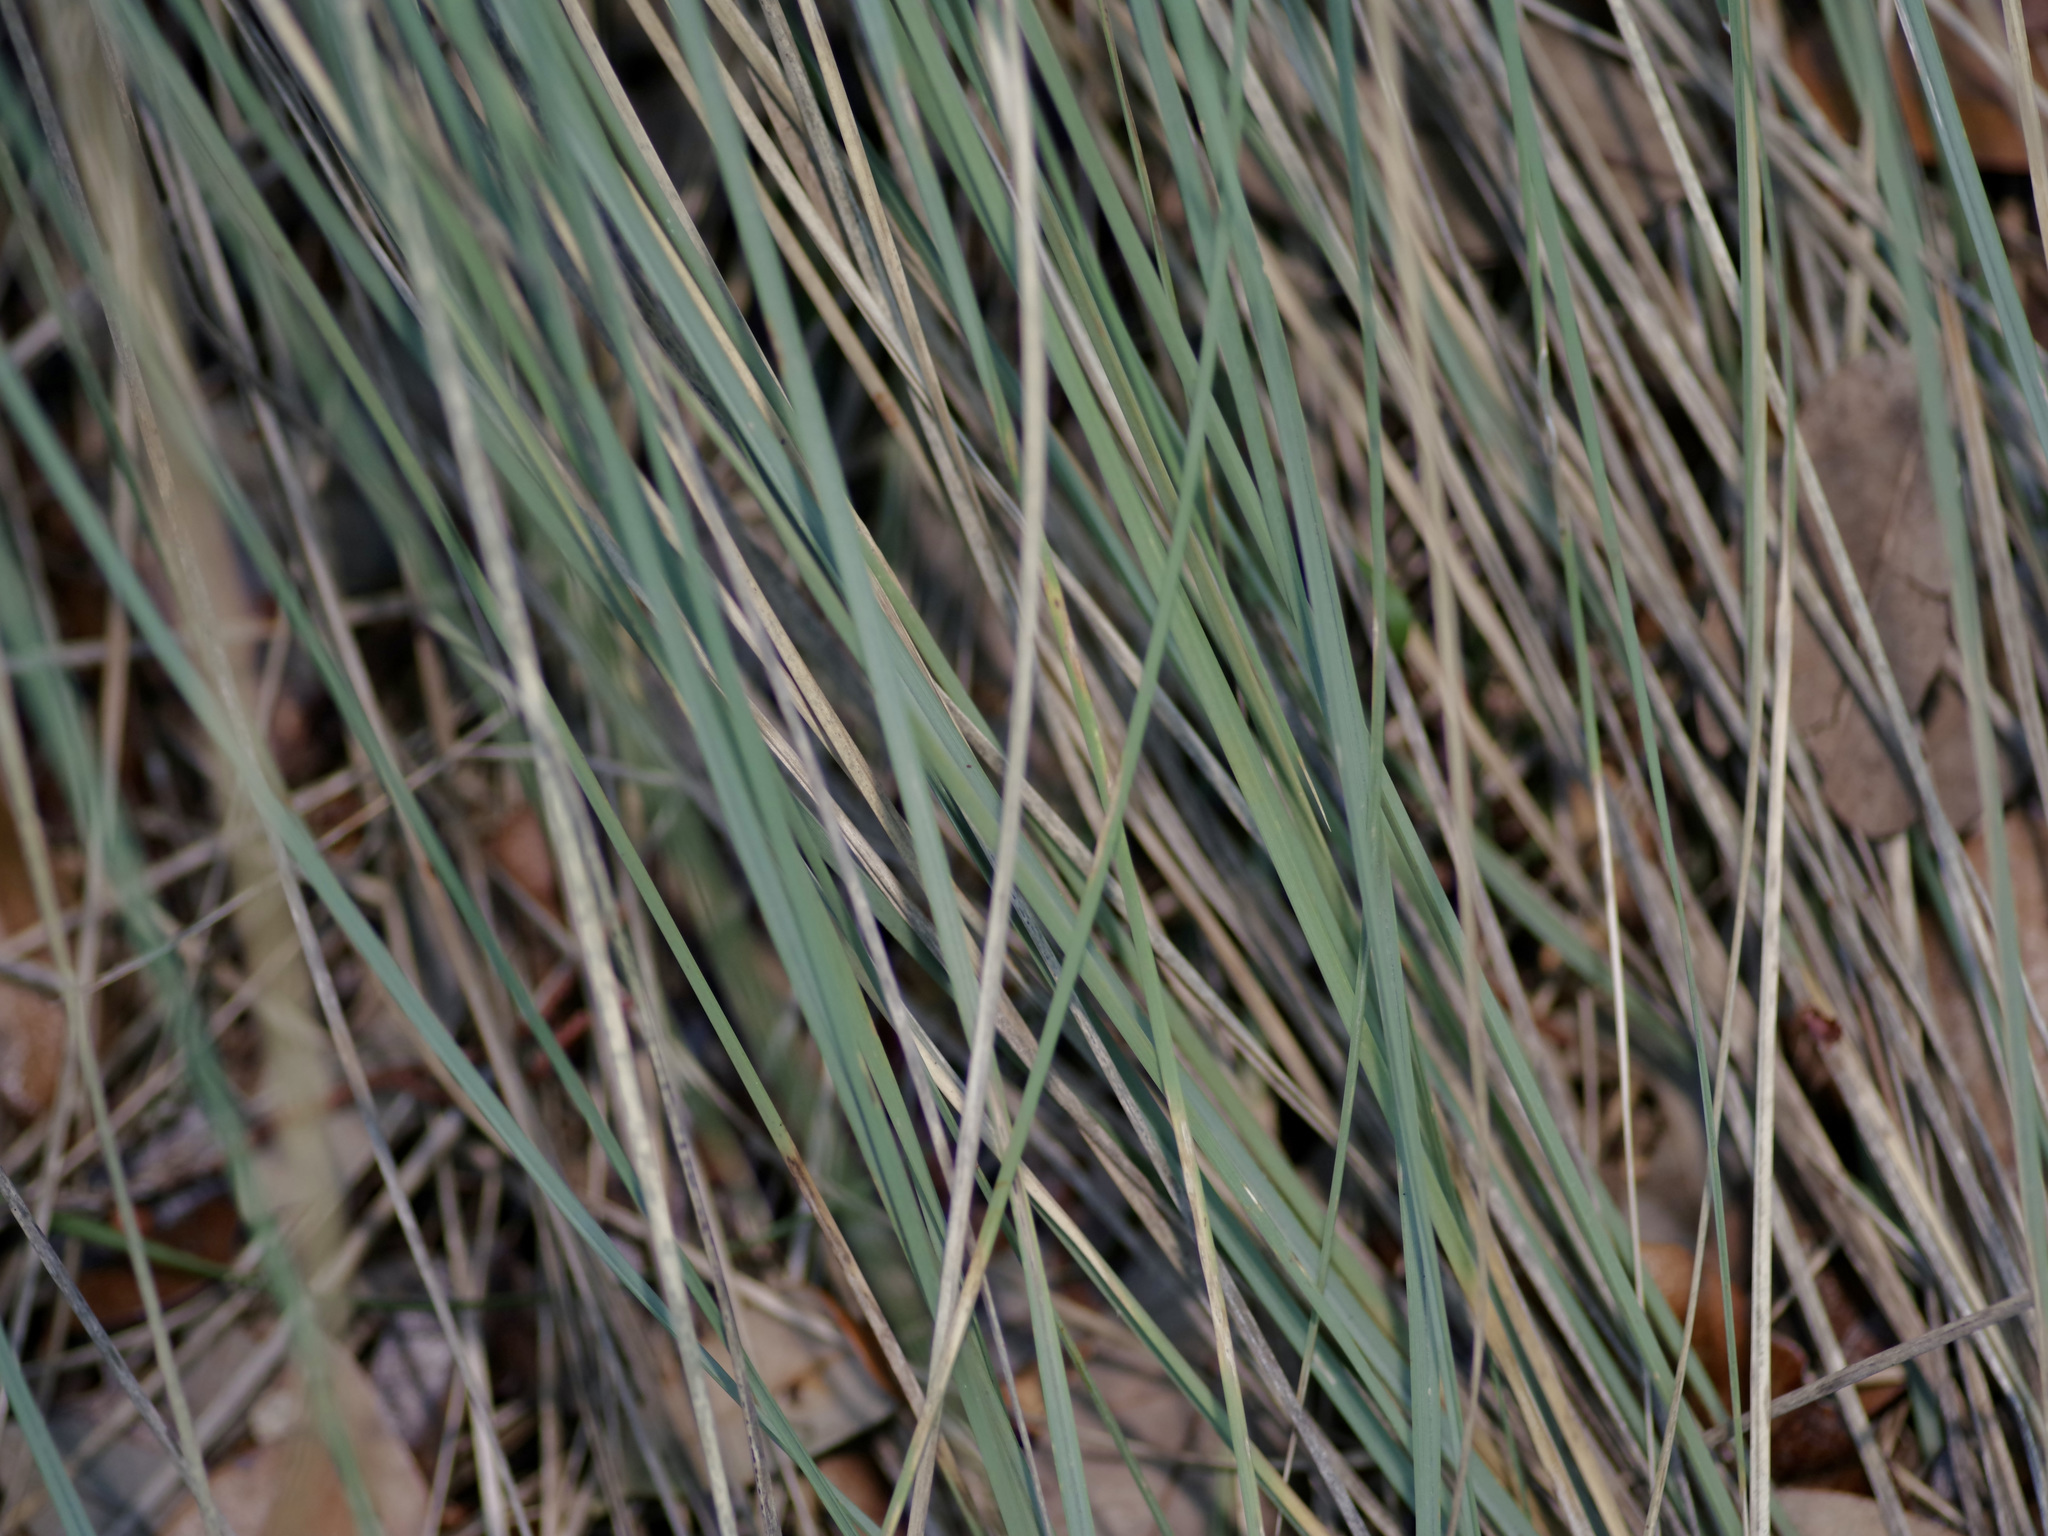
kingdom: Plantae
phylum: Tracheophyta
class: Liliopsida
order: Asparagales
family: Asparagaceae
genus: Nolina
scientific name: Nolina texana
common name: Texas sacahuiste
